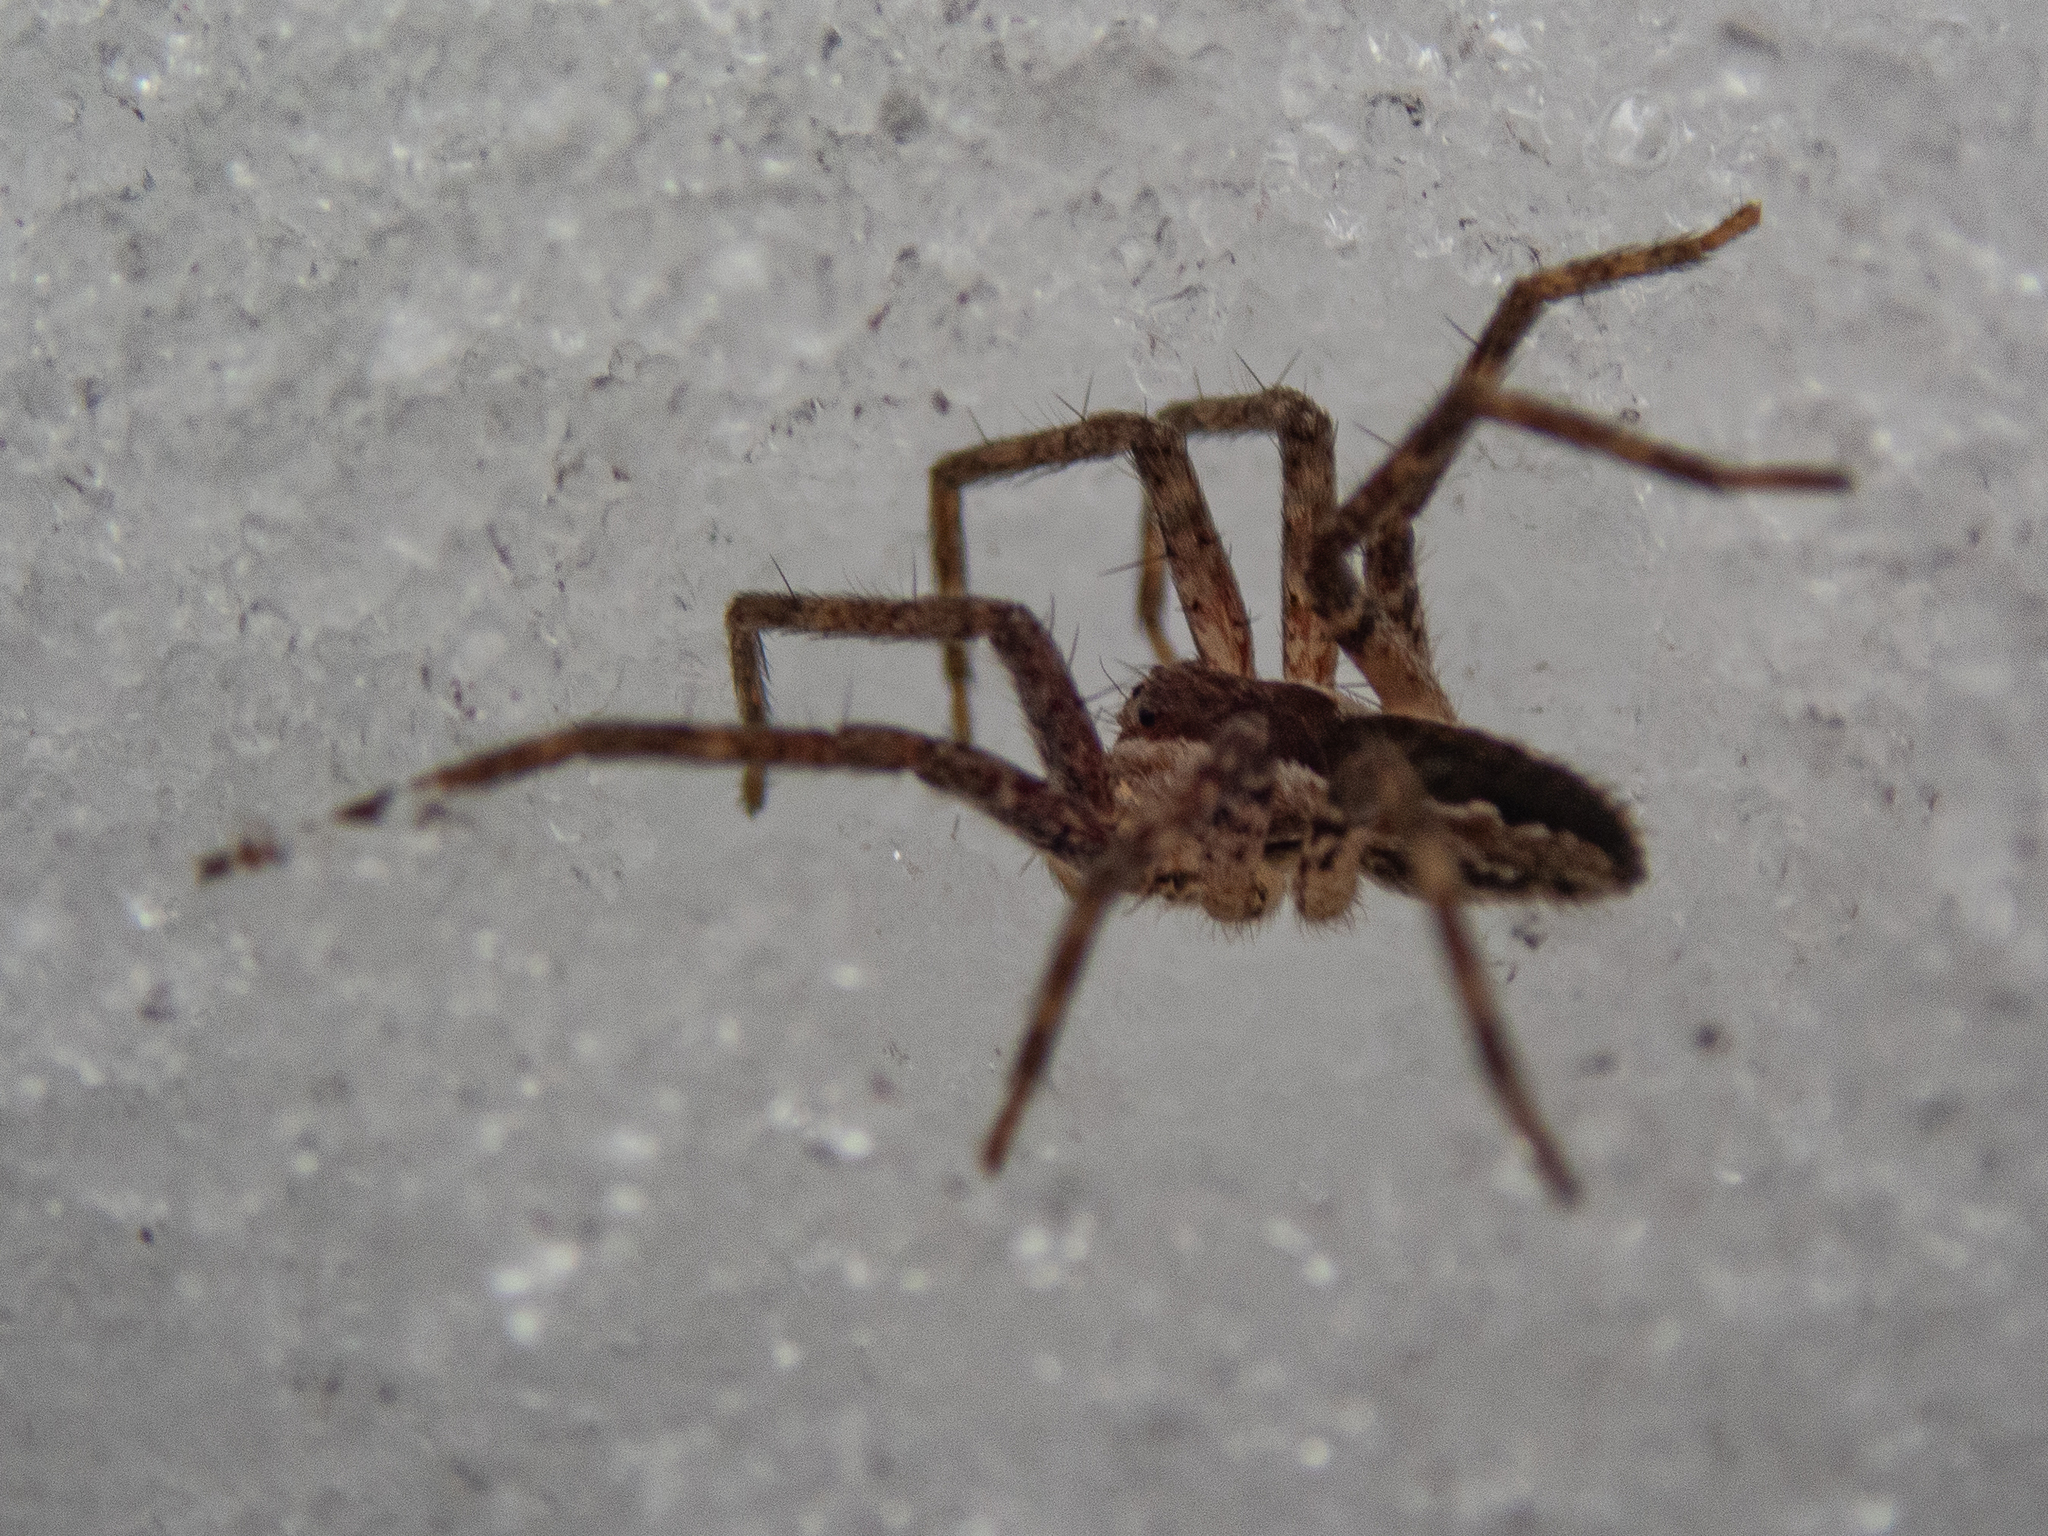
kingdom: Animalia
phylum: Arthropoda
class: Arachnida
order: Araneae
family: Pisauridae
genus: Pisaurina
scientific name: Pisaurina mira
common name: American nursery web spider
